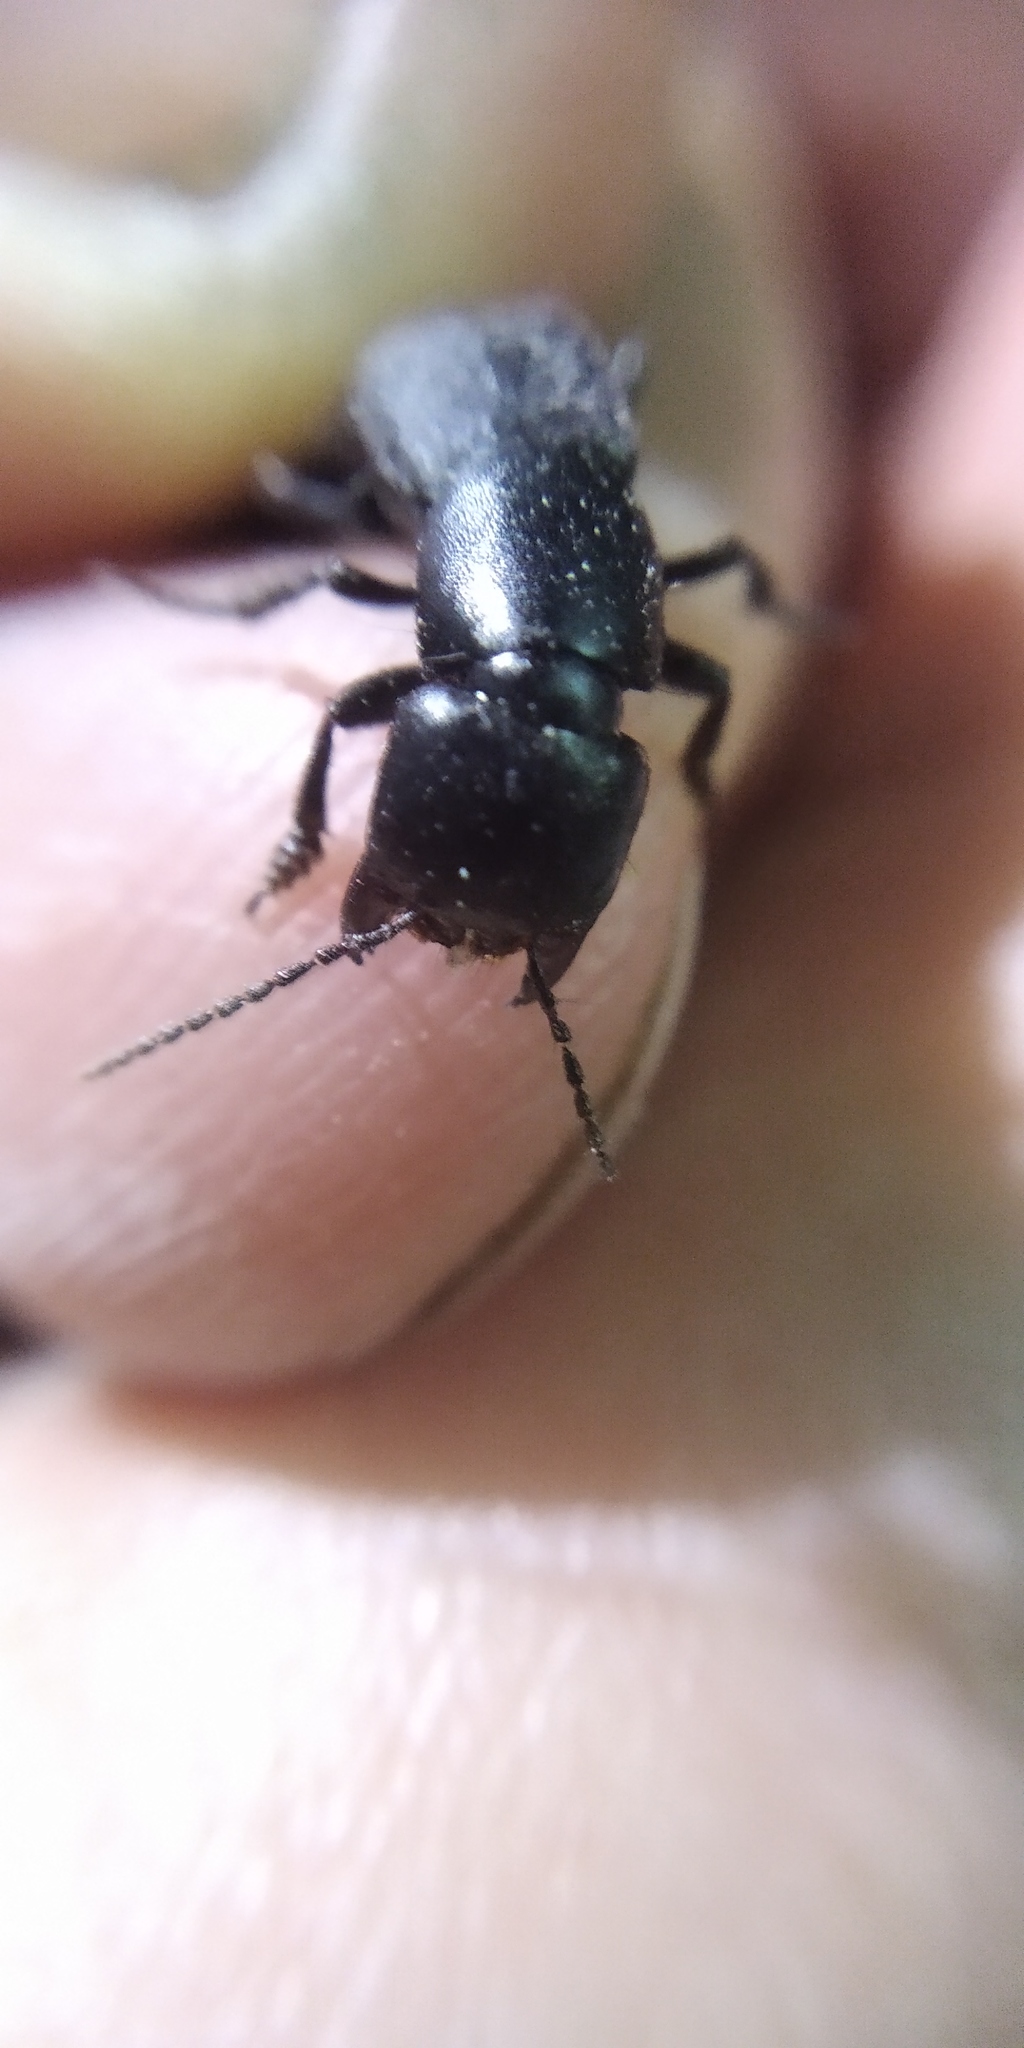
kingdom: Animalia
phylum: Arthropoda
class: Insecta
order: Coleoptera
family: Staphylinidae
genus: Ocypus
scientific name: Ocypus nitens
